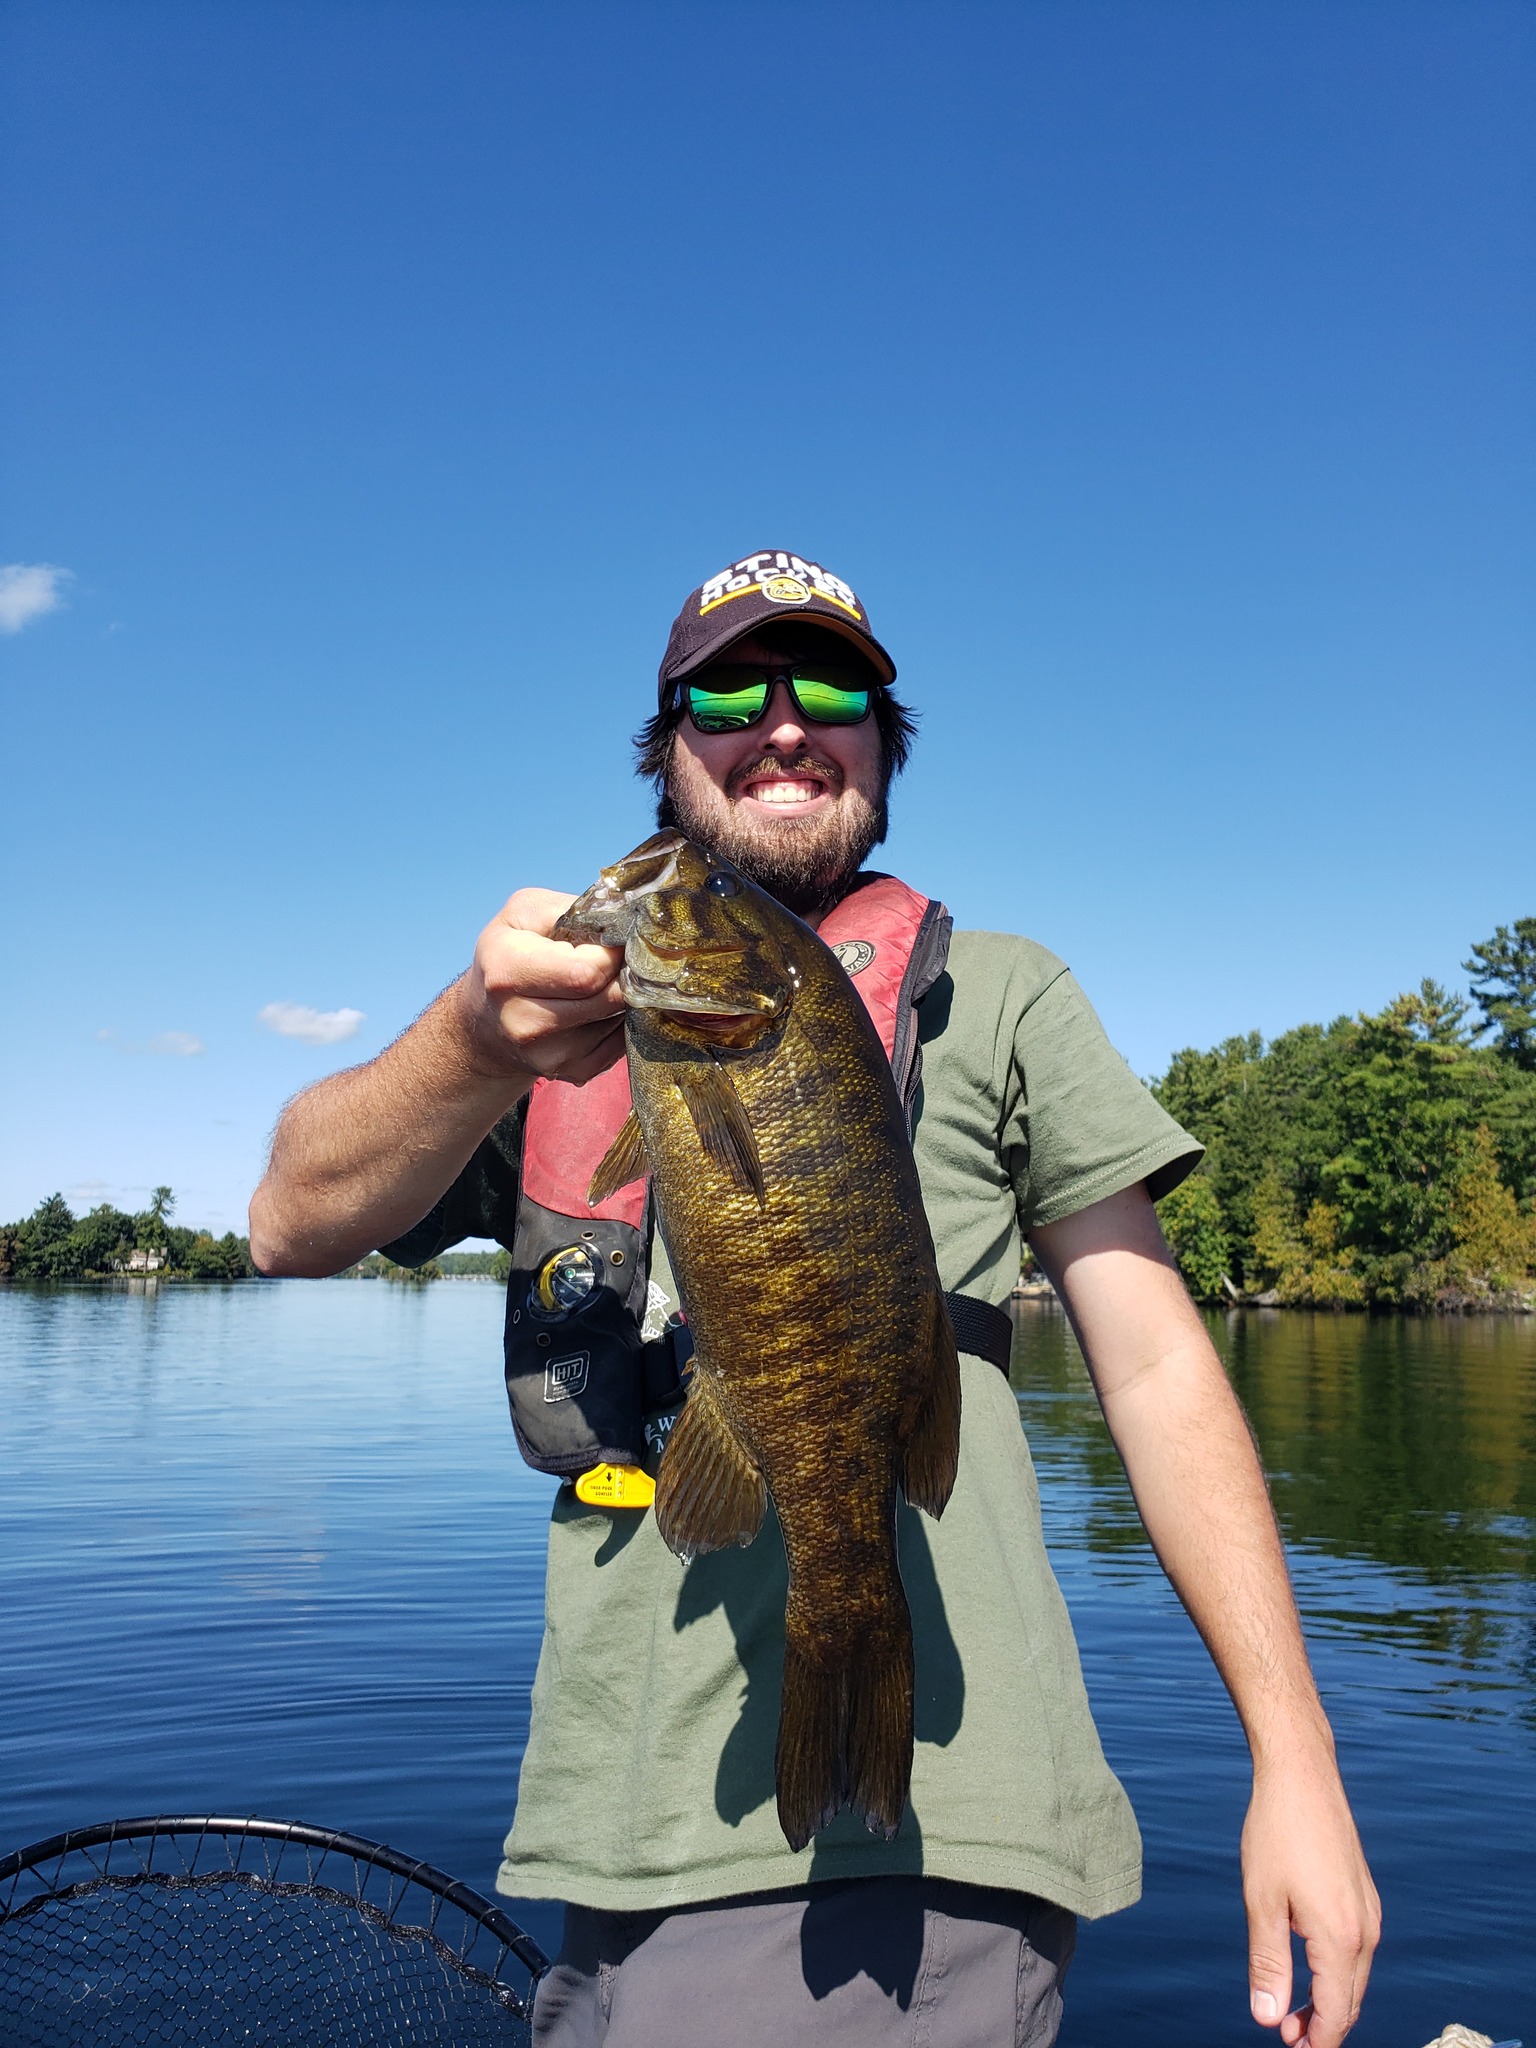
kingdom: Animalia
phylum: Chordata
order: Perciformes
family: Centrarchidae
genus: Micropterus
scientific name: Micropterus dolomieu
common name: Smallmouth bass
